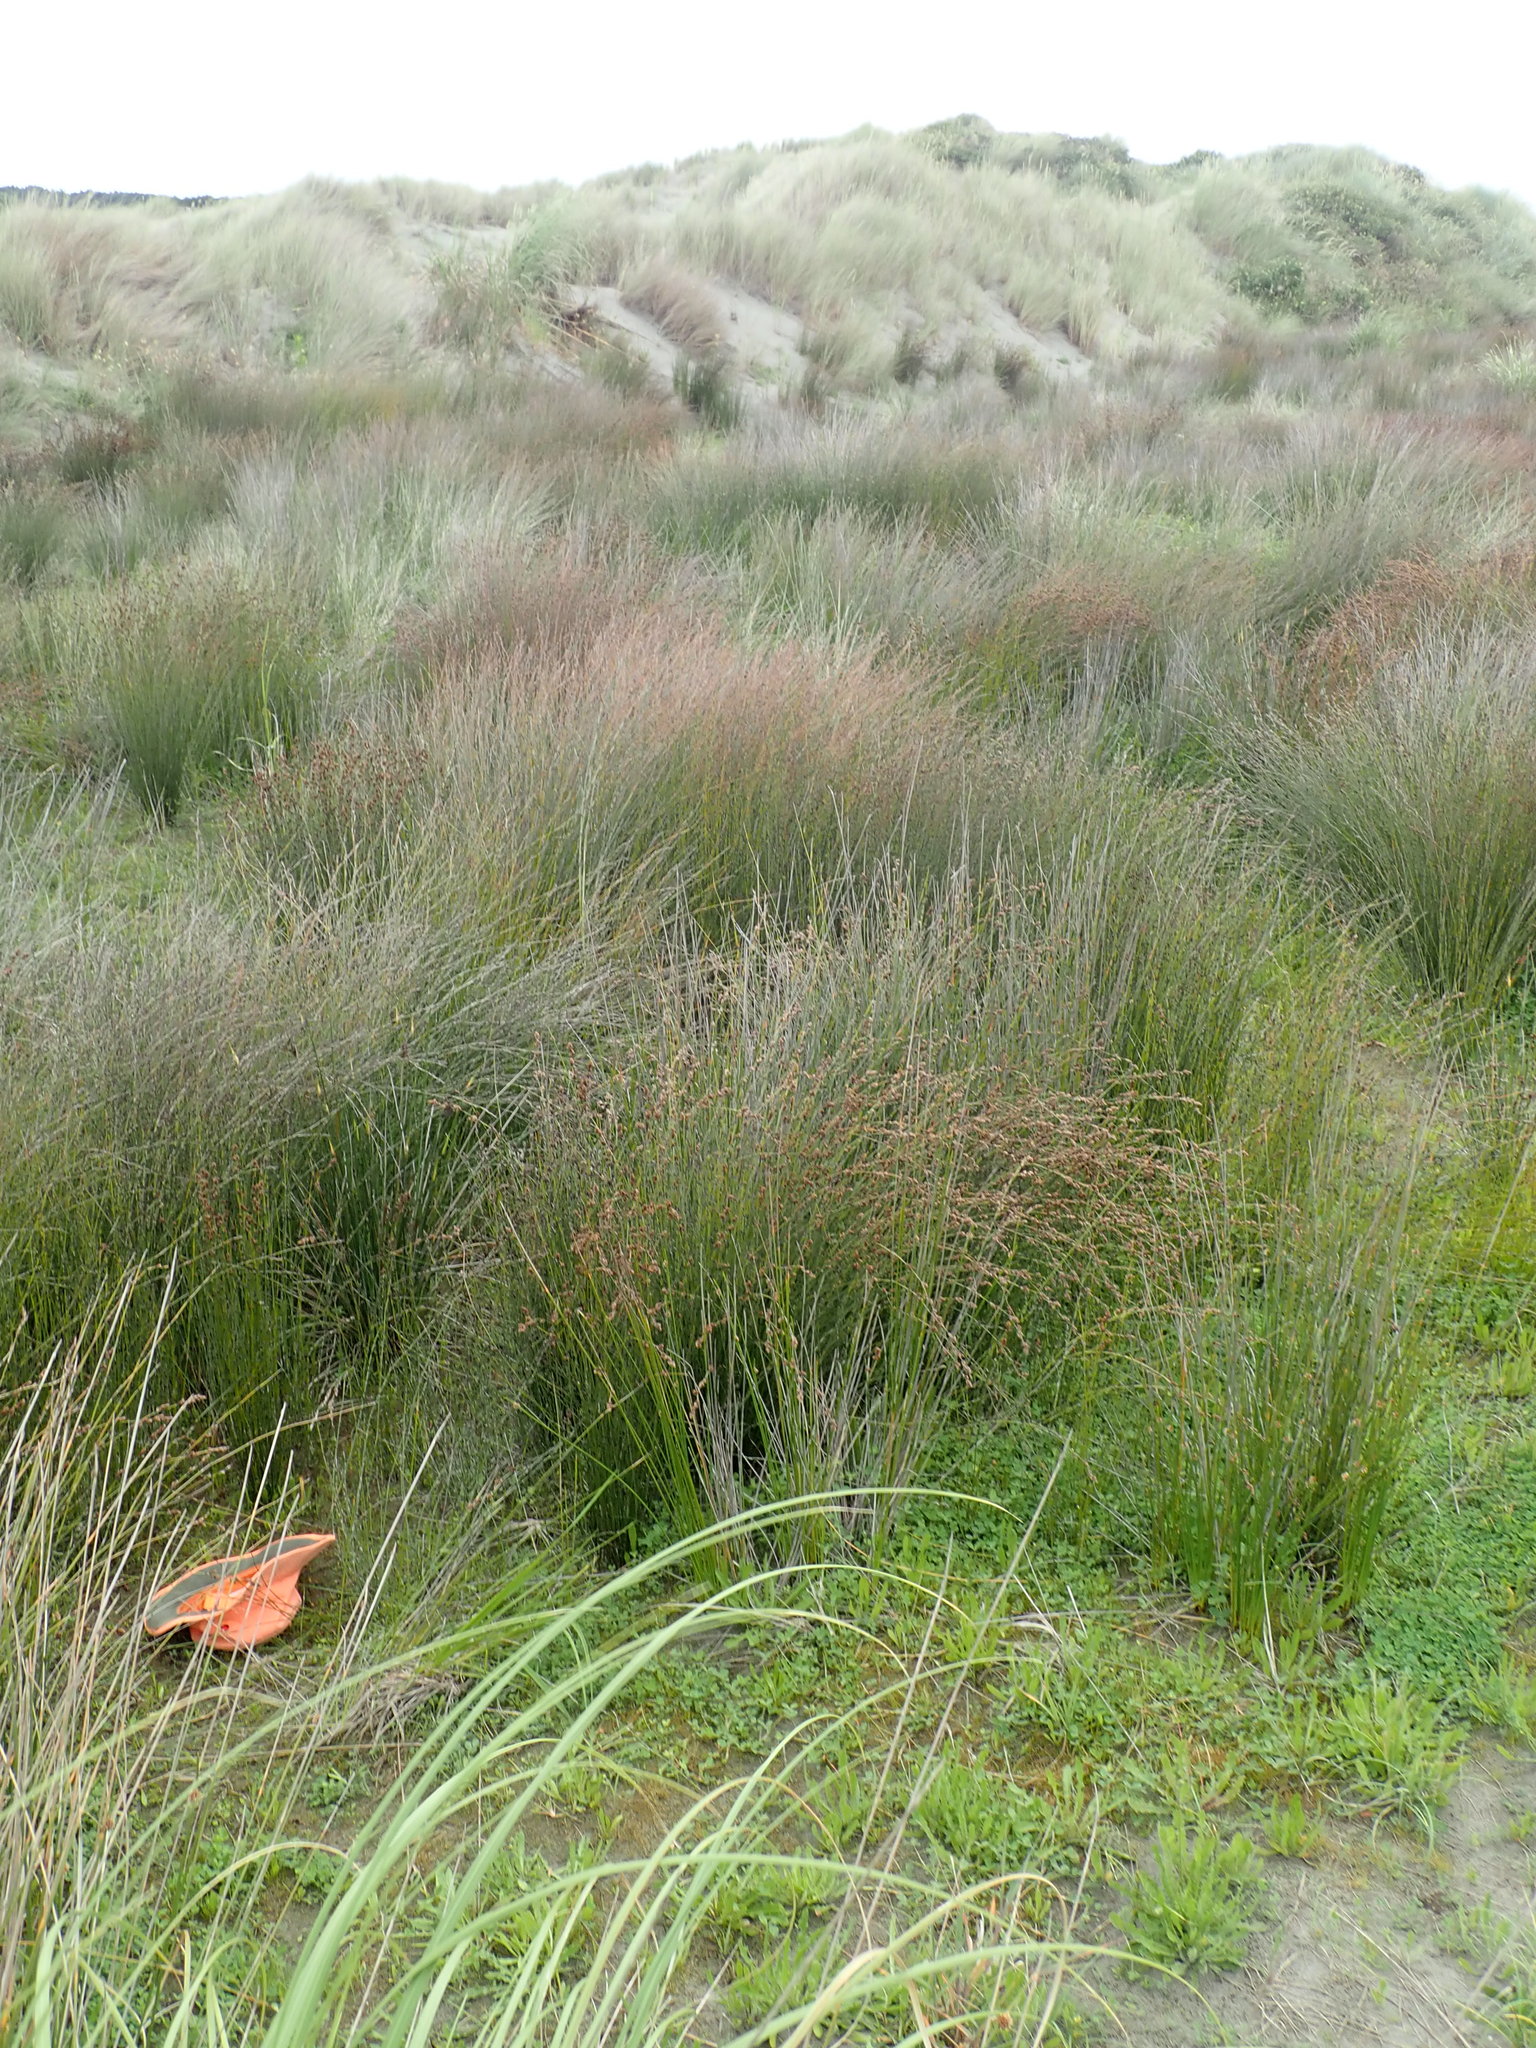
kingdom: Plantae
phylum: Tracheophyta
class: Liliopsida
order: Poales
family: Cyperaceae
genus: Isolepis
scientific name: Isolepis cernua
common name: Slender club-rush
